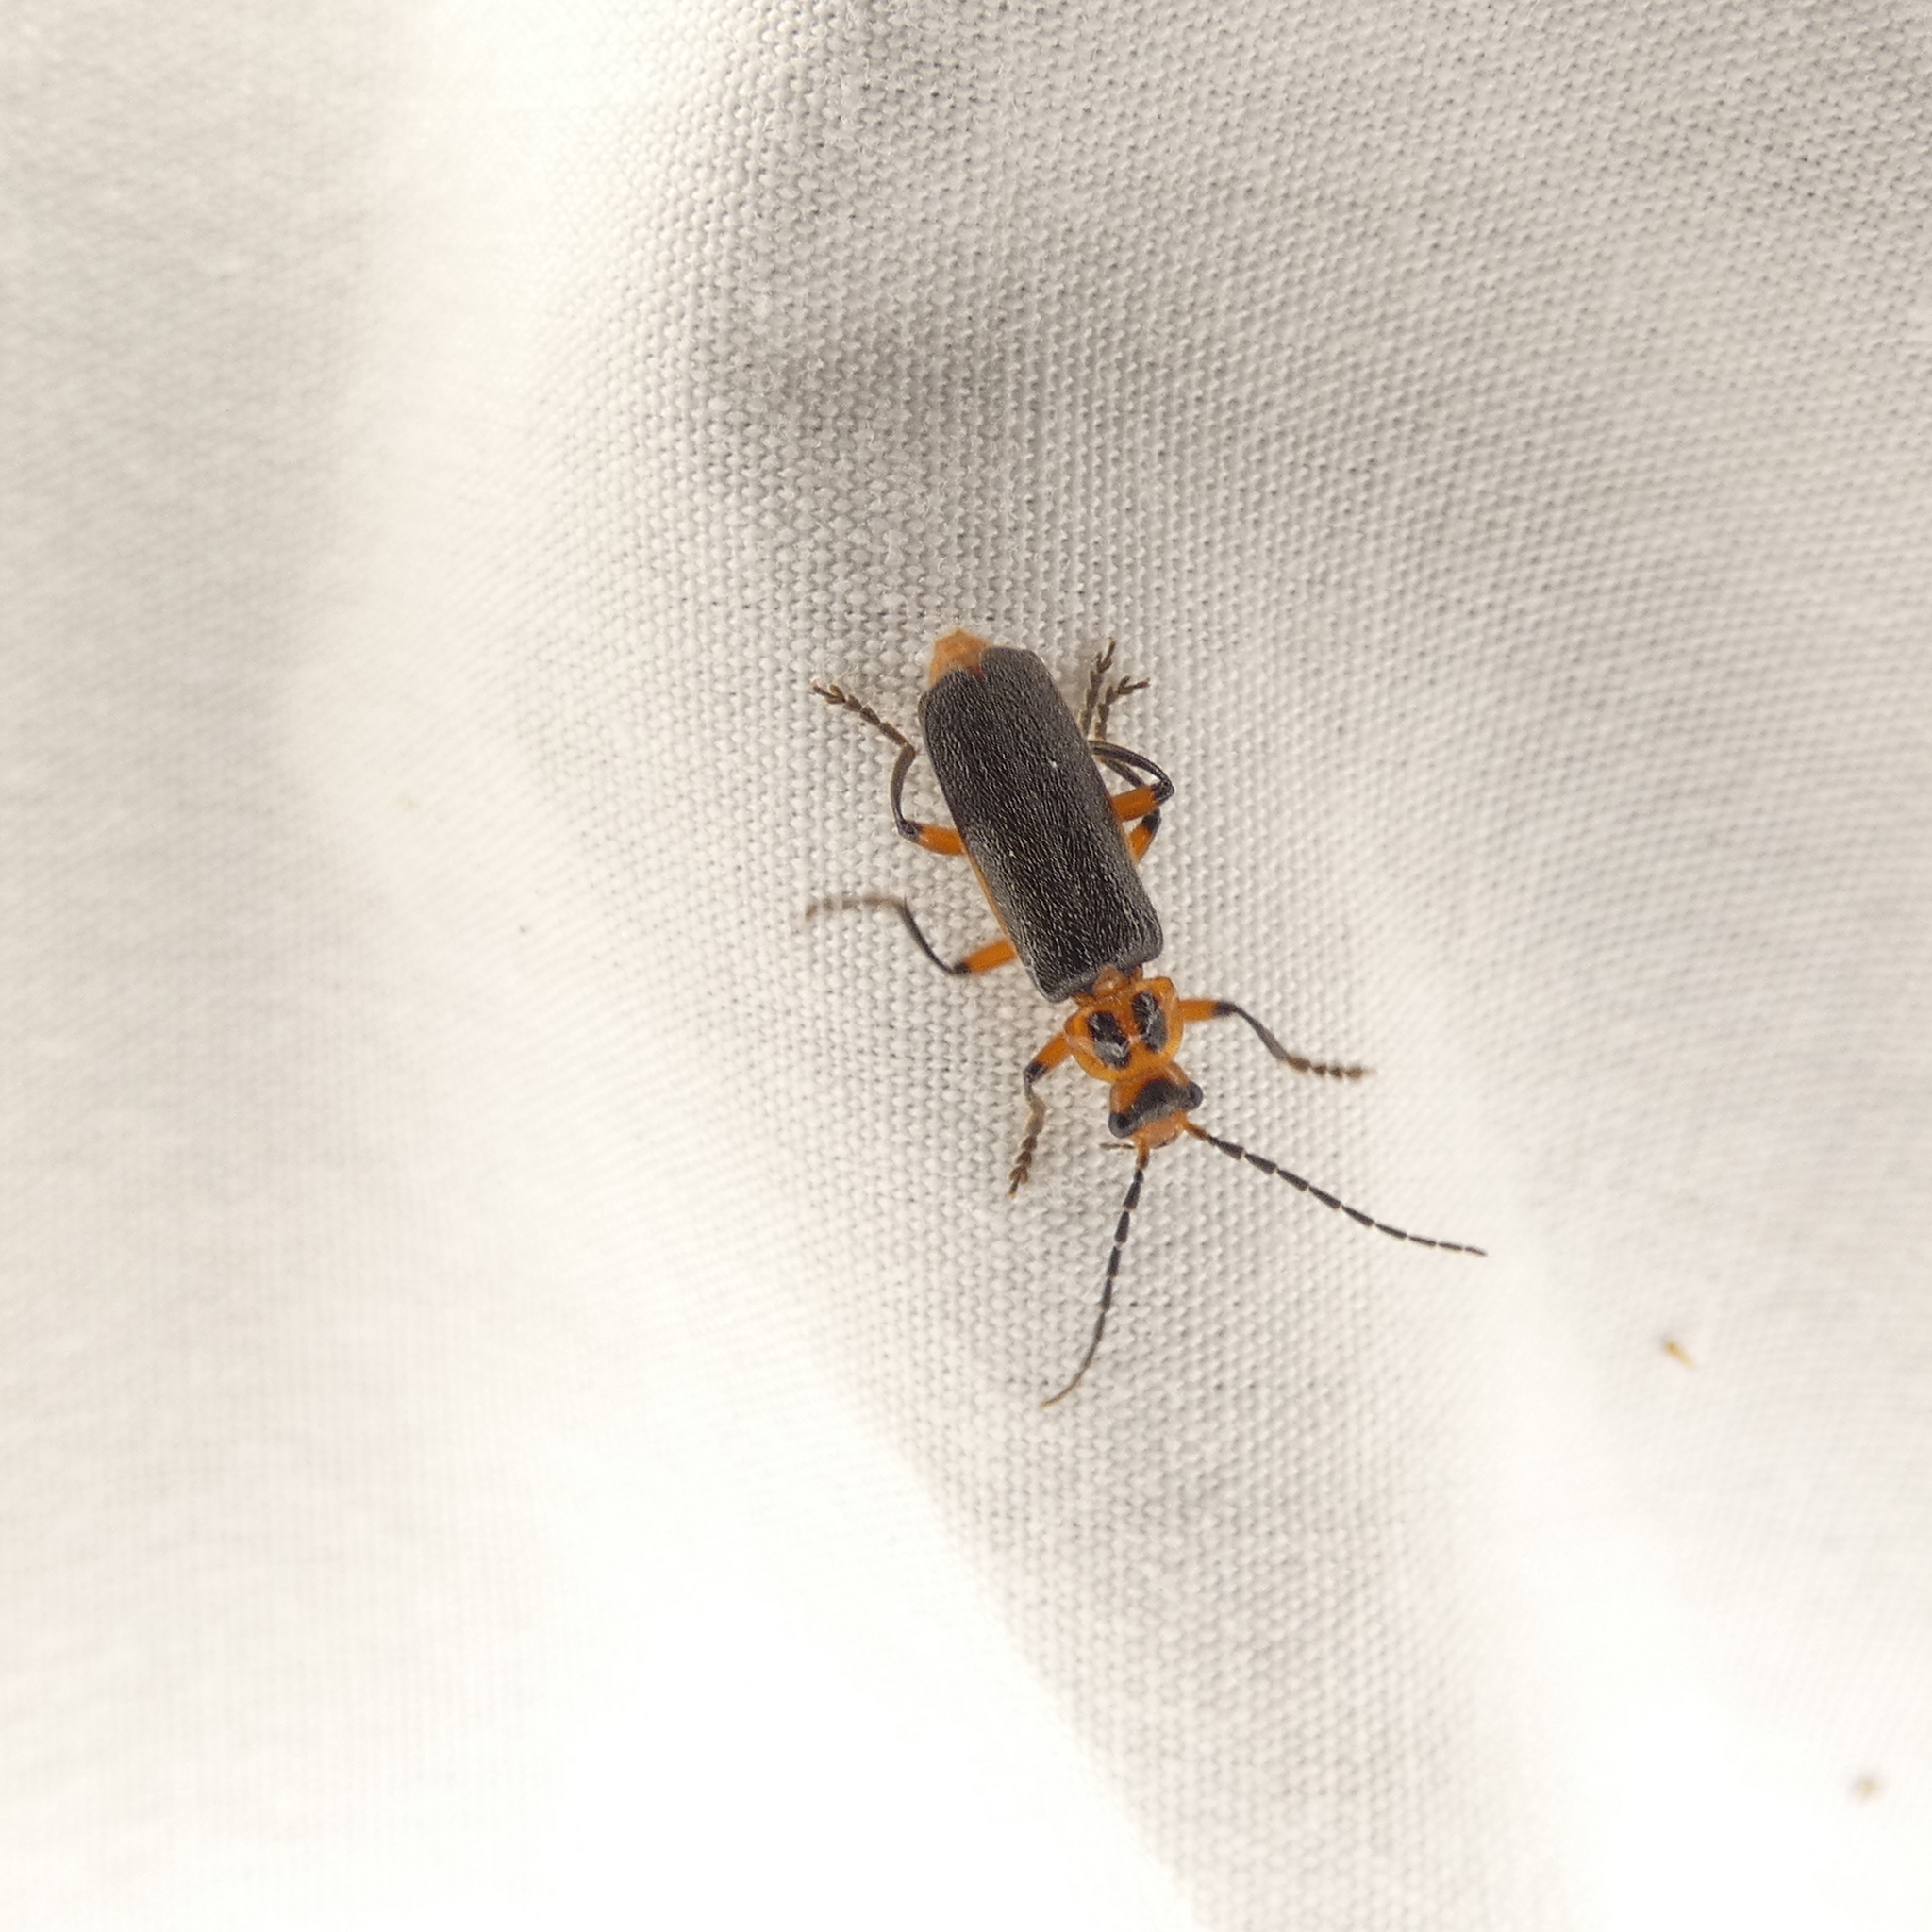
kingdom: Animalia
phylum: Arthropoda
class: Insecta
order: Coleoptera
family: Cantharidae
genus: Atalantycha
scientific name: Atalantycha bilineata
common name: Two-lined leatherwing
